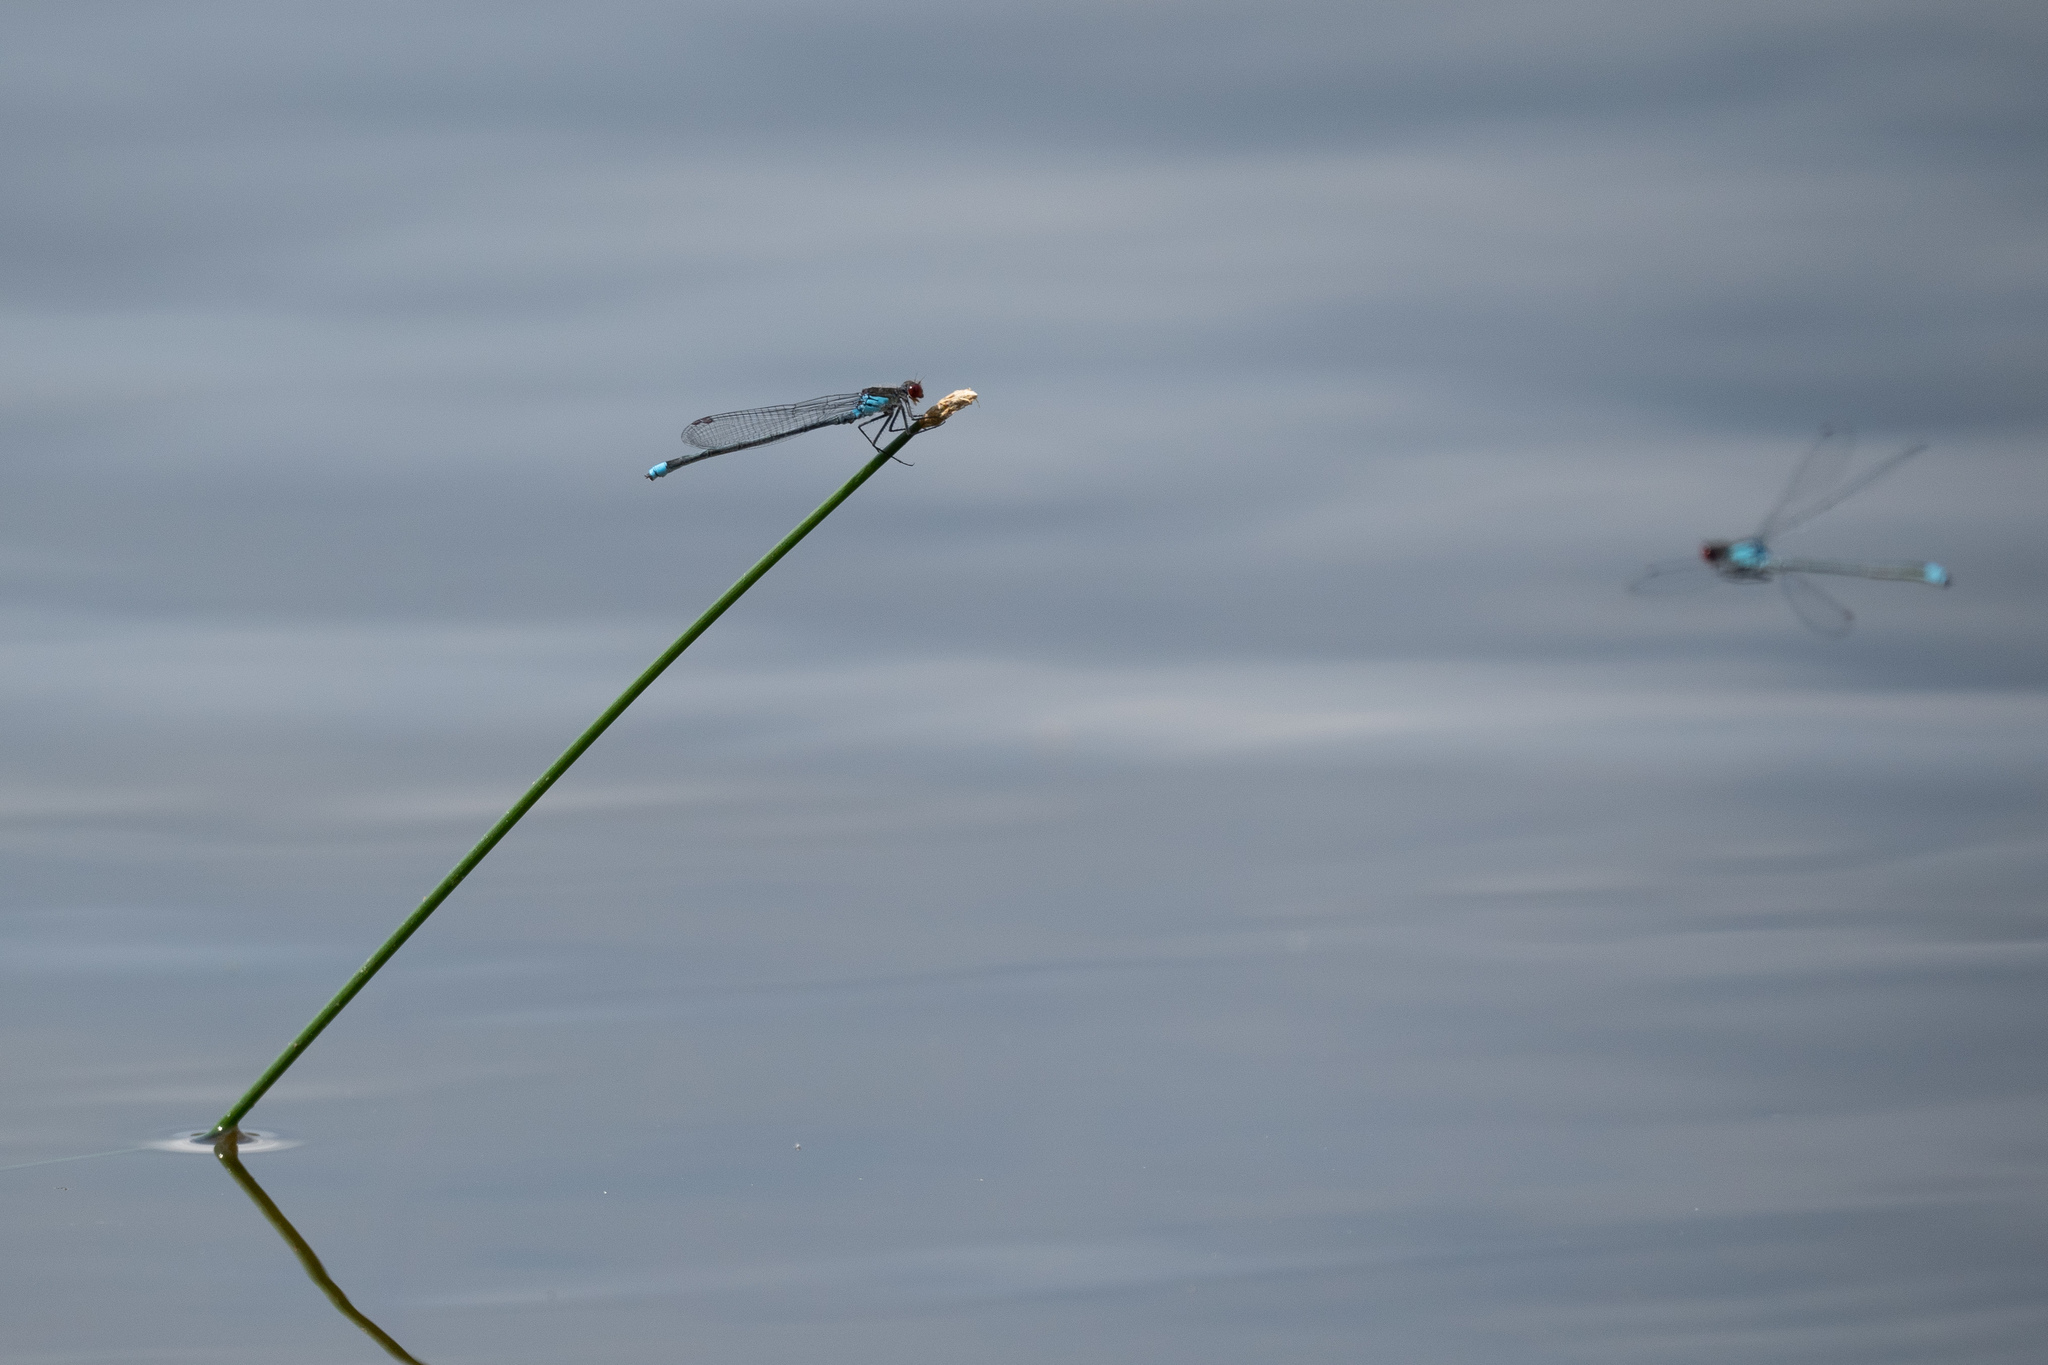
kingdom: Animalia
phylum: Arthropoda
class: Insecta
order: Odonata
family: Coenagrionidae
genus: Erythromma
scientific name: Erythromma najas
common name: Red-eyed damselfly
